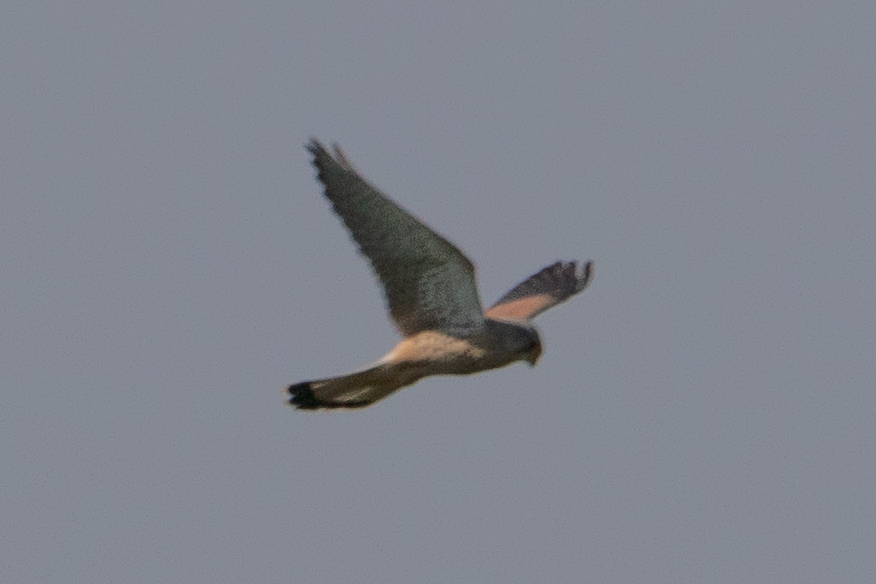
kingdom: Animalia
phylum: Chordata
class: Aves
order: Falconiformes
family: Falconidae
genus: Falco
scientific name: Falco tinnunculus
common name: Common kestrel
